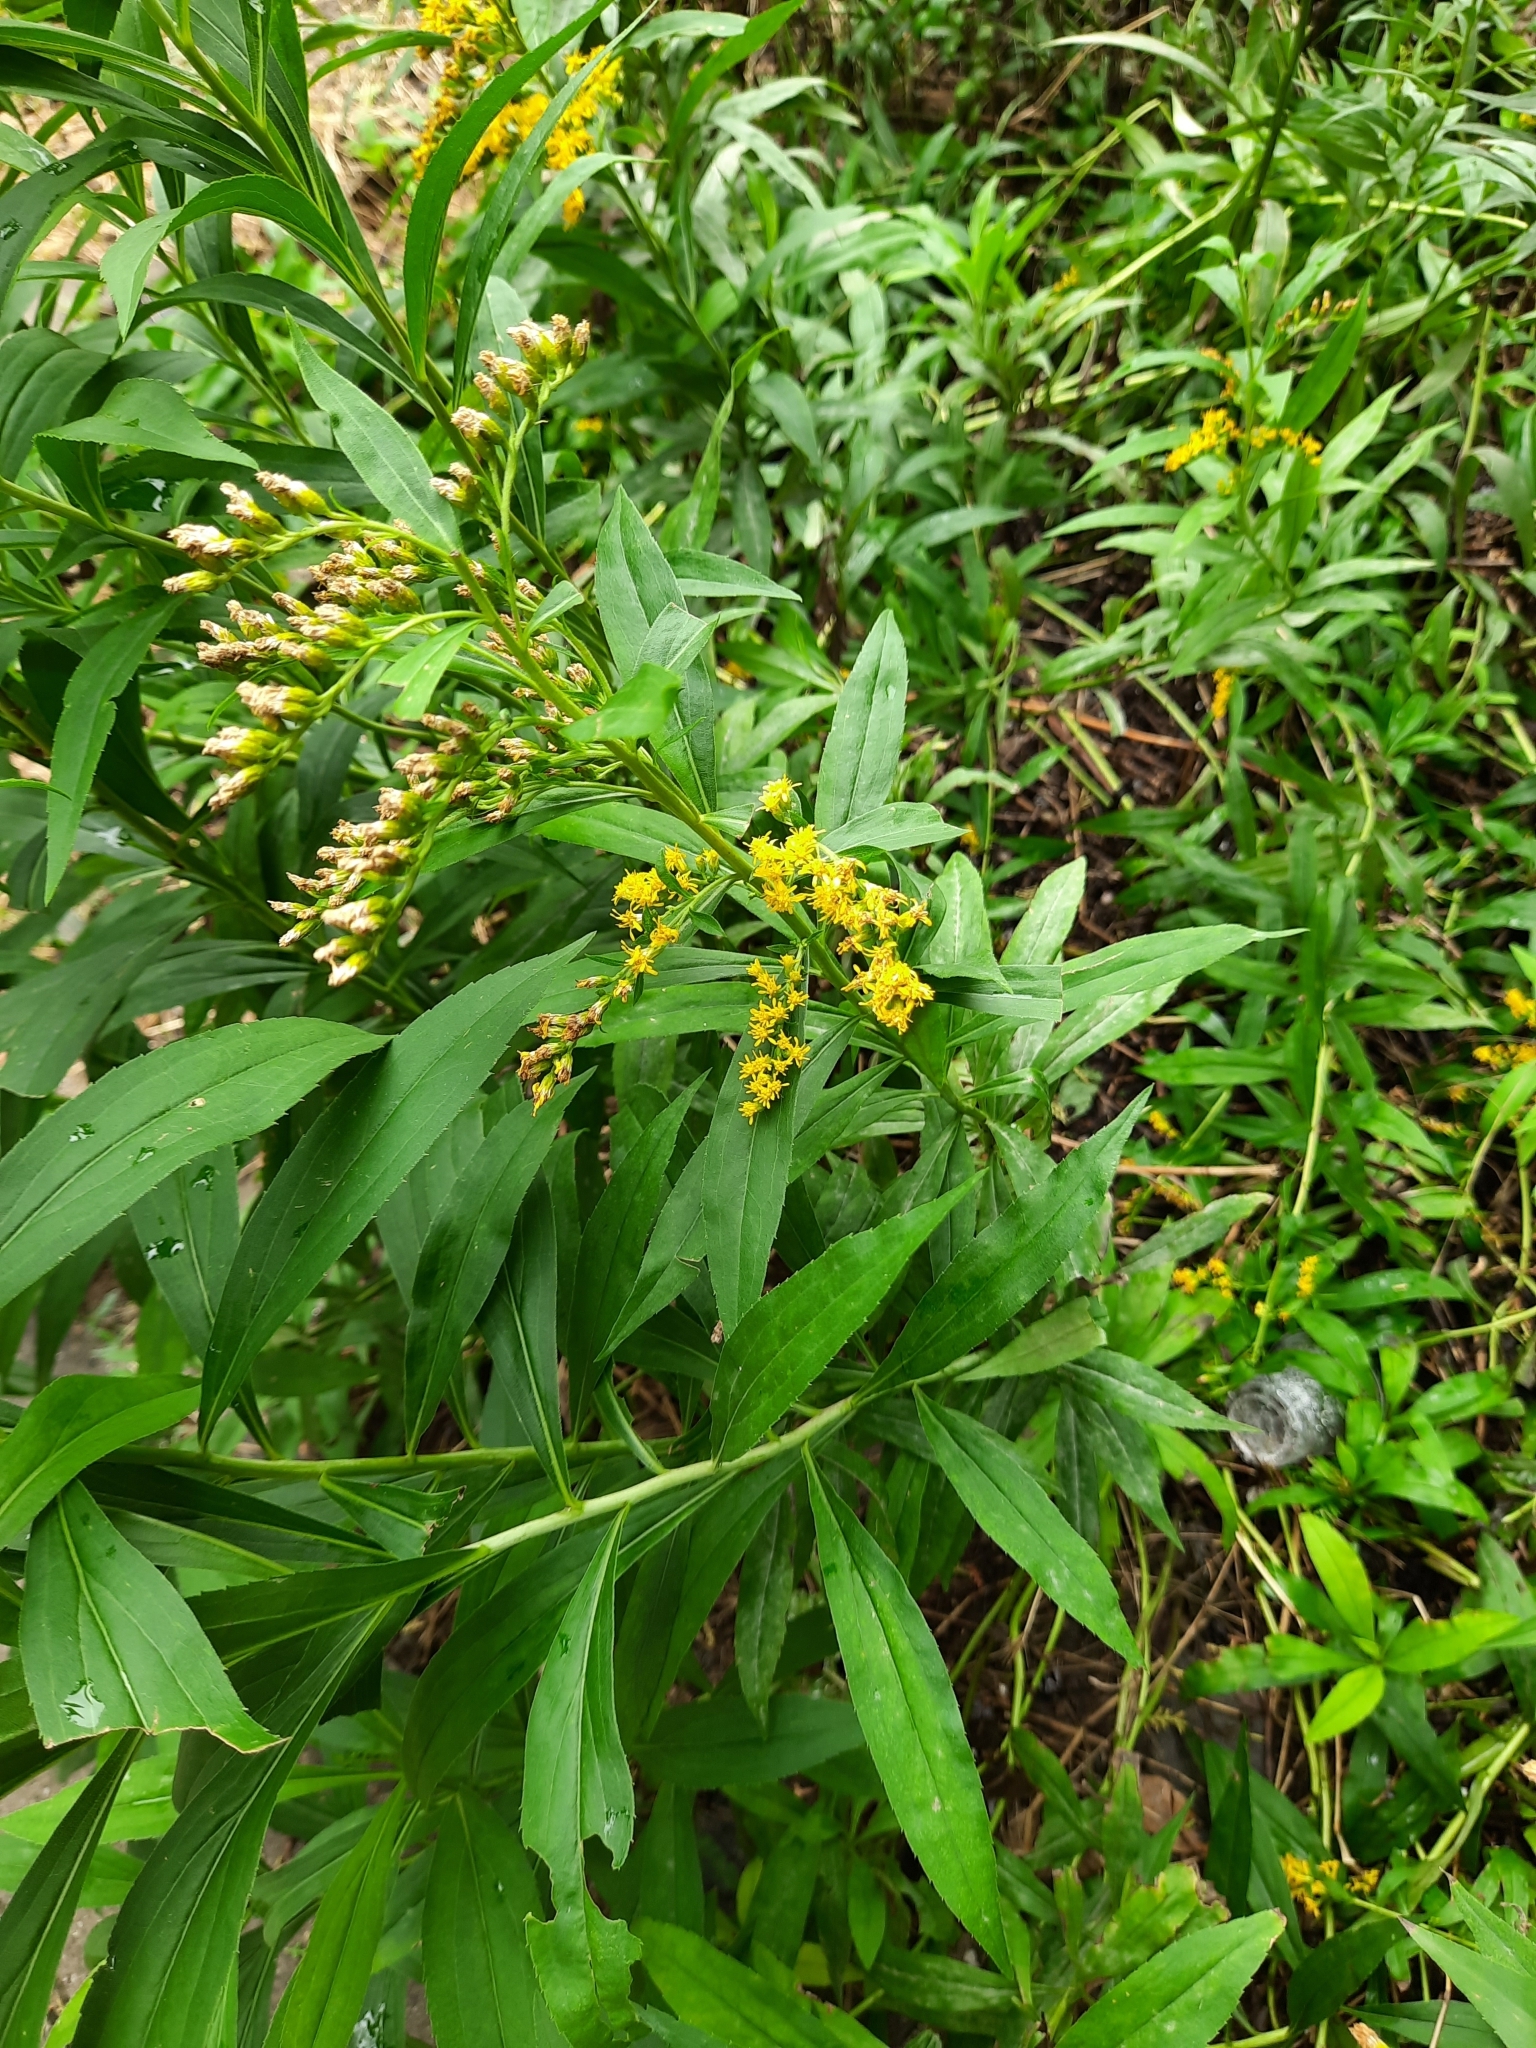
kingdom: Plantae
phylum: Tracheophyta
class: Magnoliopsida
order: Asterales
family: Asteraceae
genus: Solidago
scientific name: Solidago gigantea
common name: Giant goldenrod
